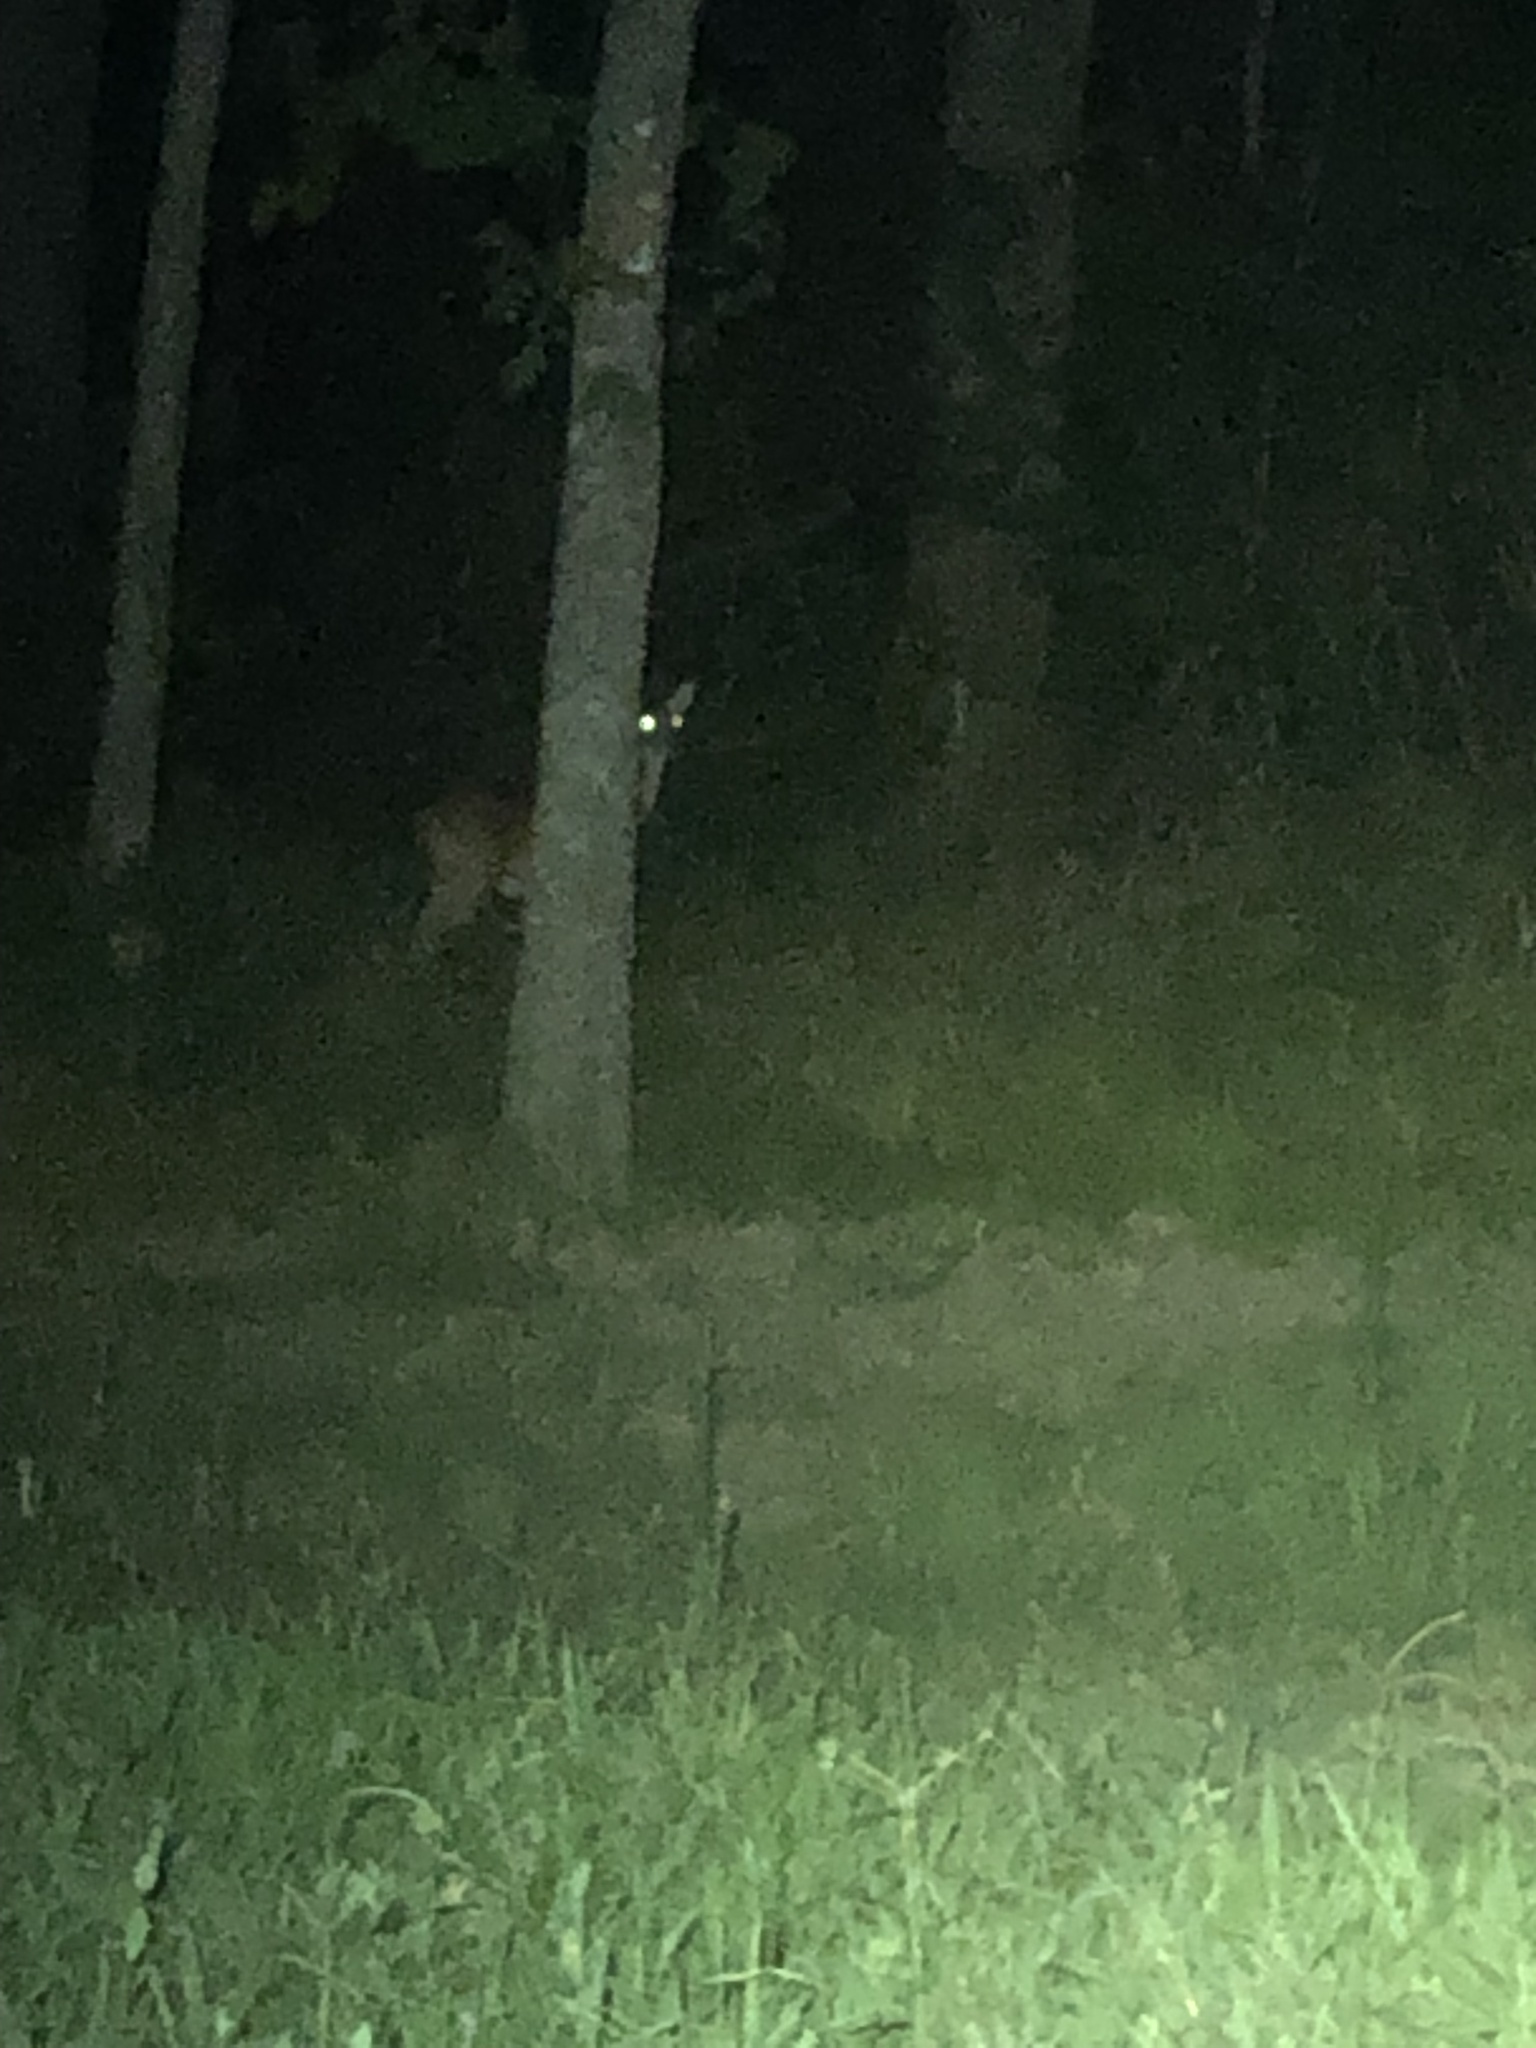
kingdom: Animalia
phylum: Chordata
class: Mammalia
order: Artiodactyla
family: Cervidae
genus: Odocoileus
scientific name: Odocoileus virginianus
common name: White-tailed deer
